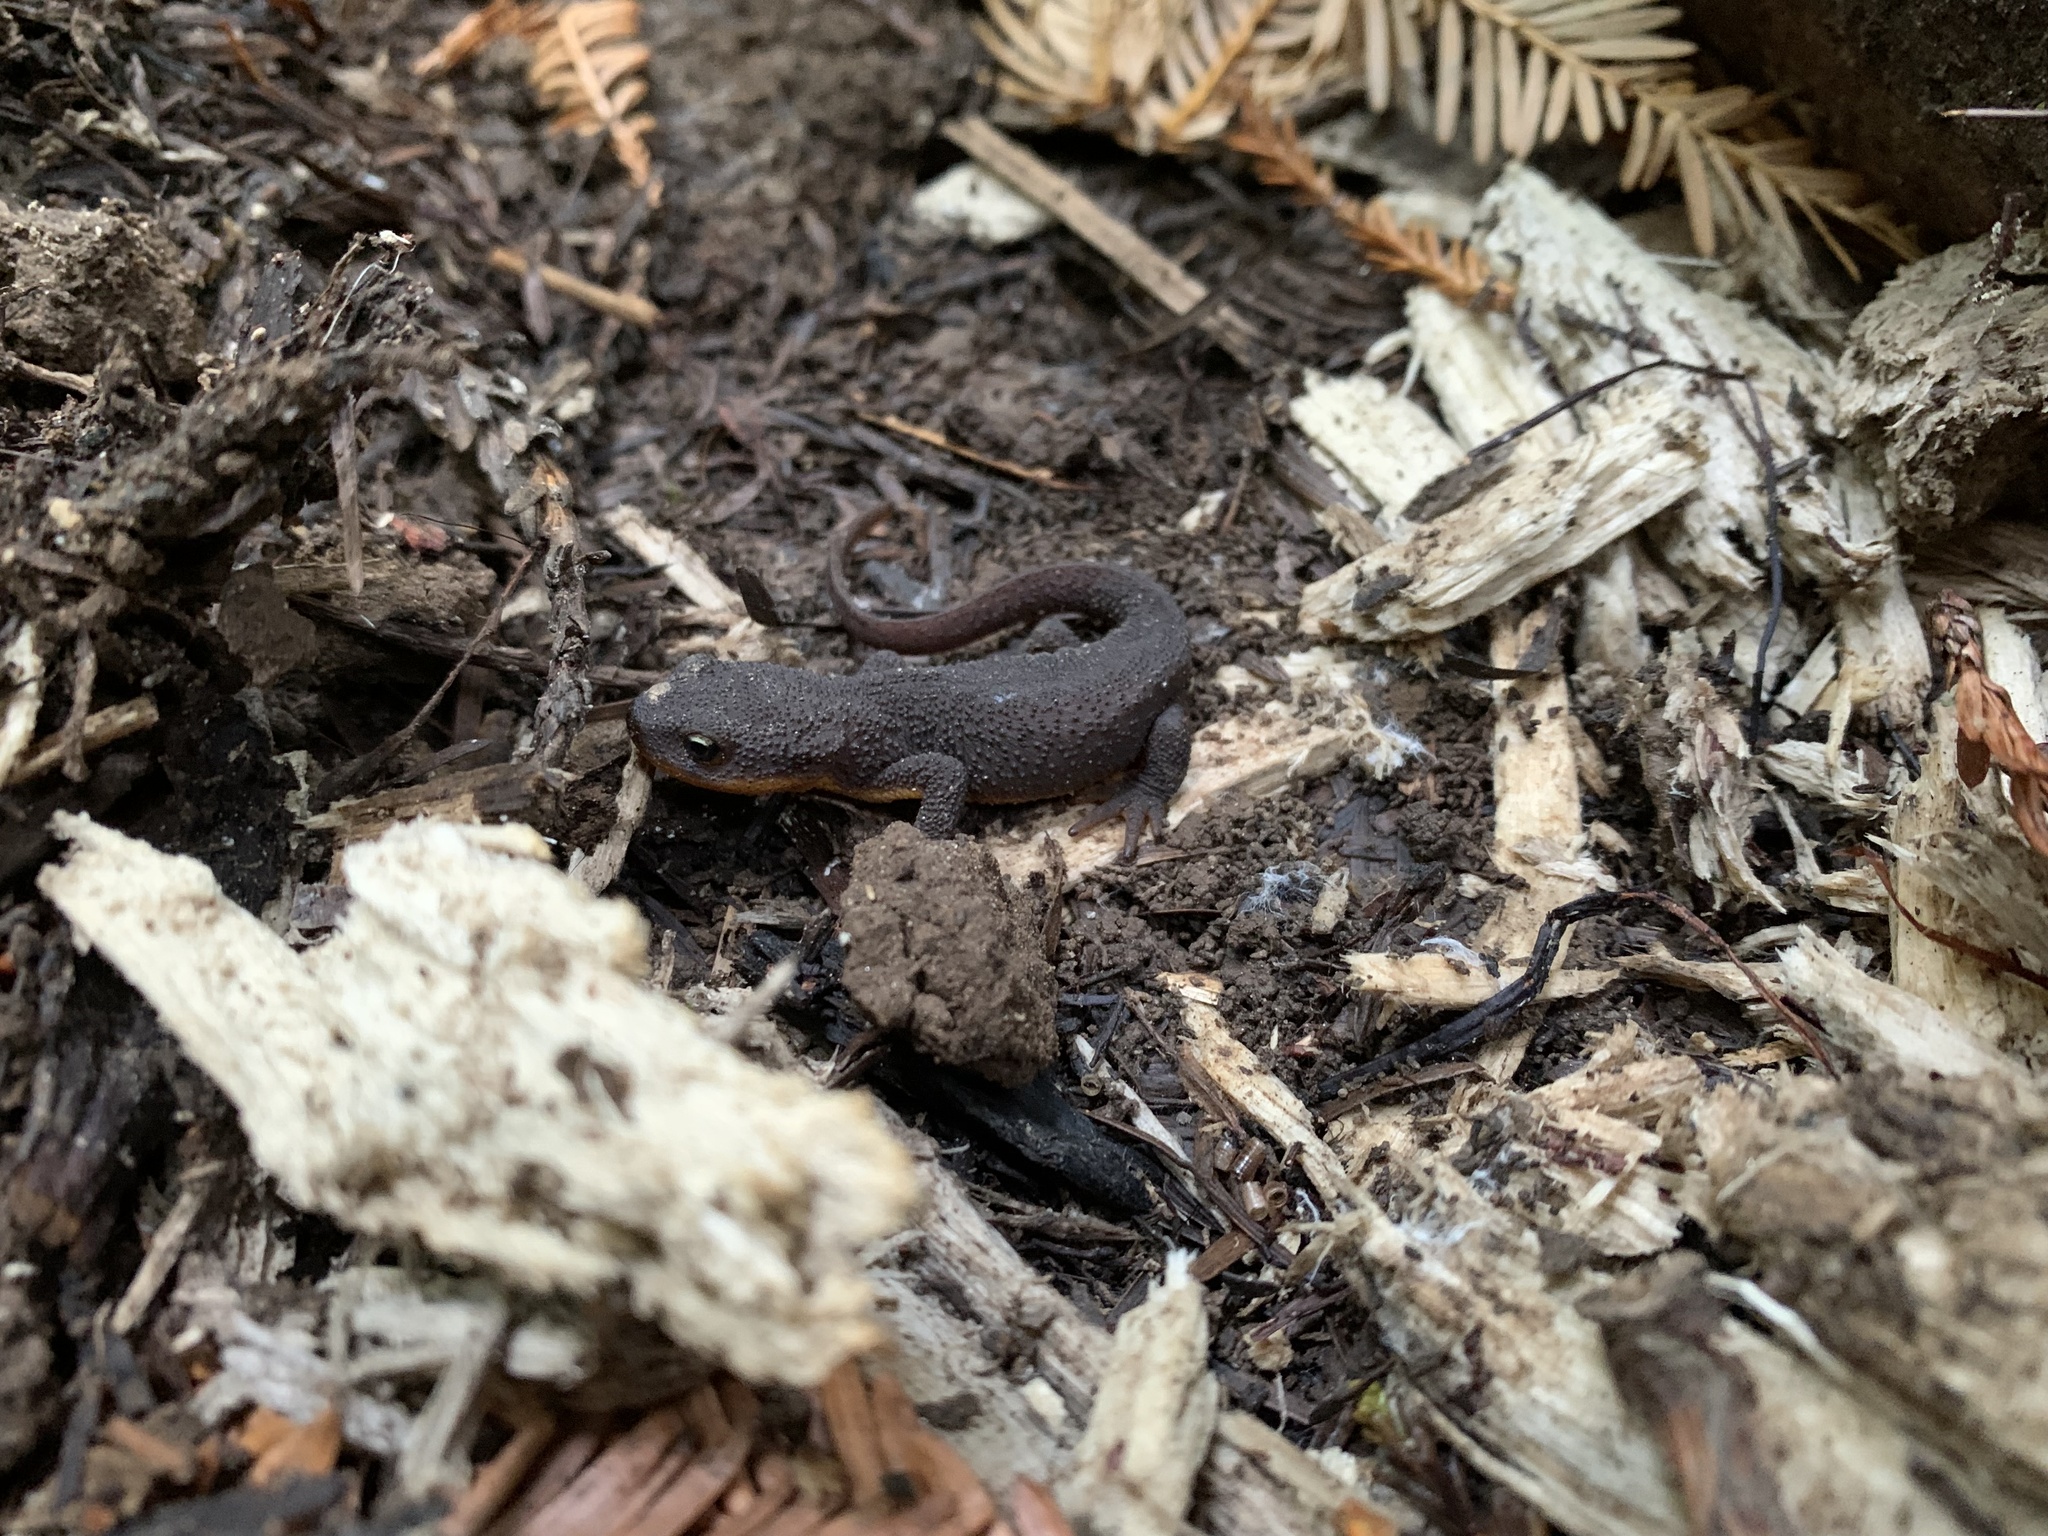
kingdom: Animalia
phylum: Chordata
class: Amphibia
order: Caudata
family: Salamandridae
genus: Taricha
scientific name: Taricha granulosa
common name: Roughskin newt
